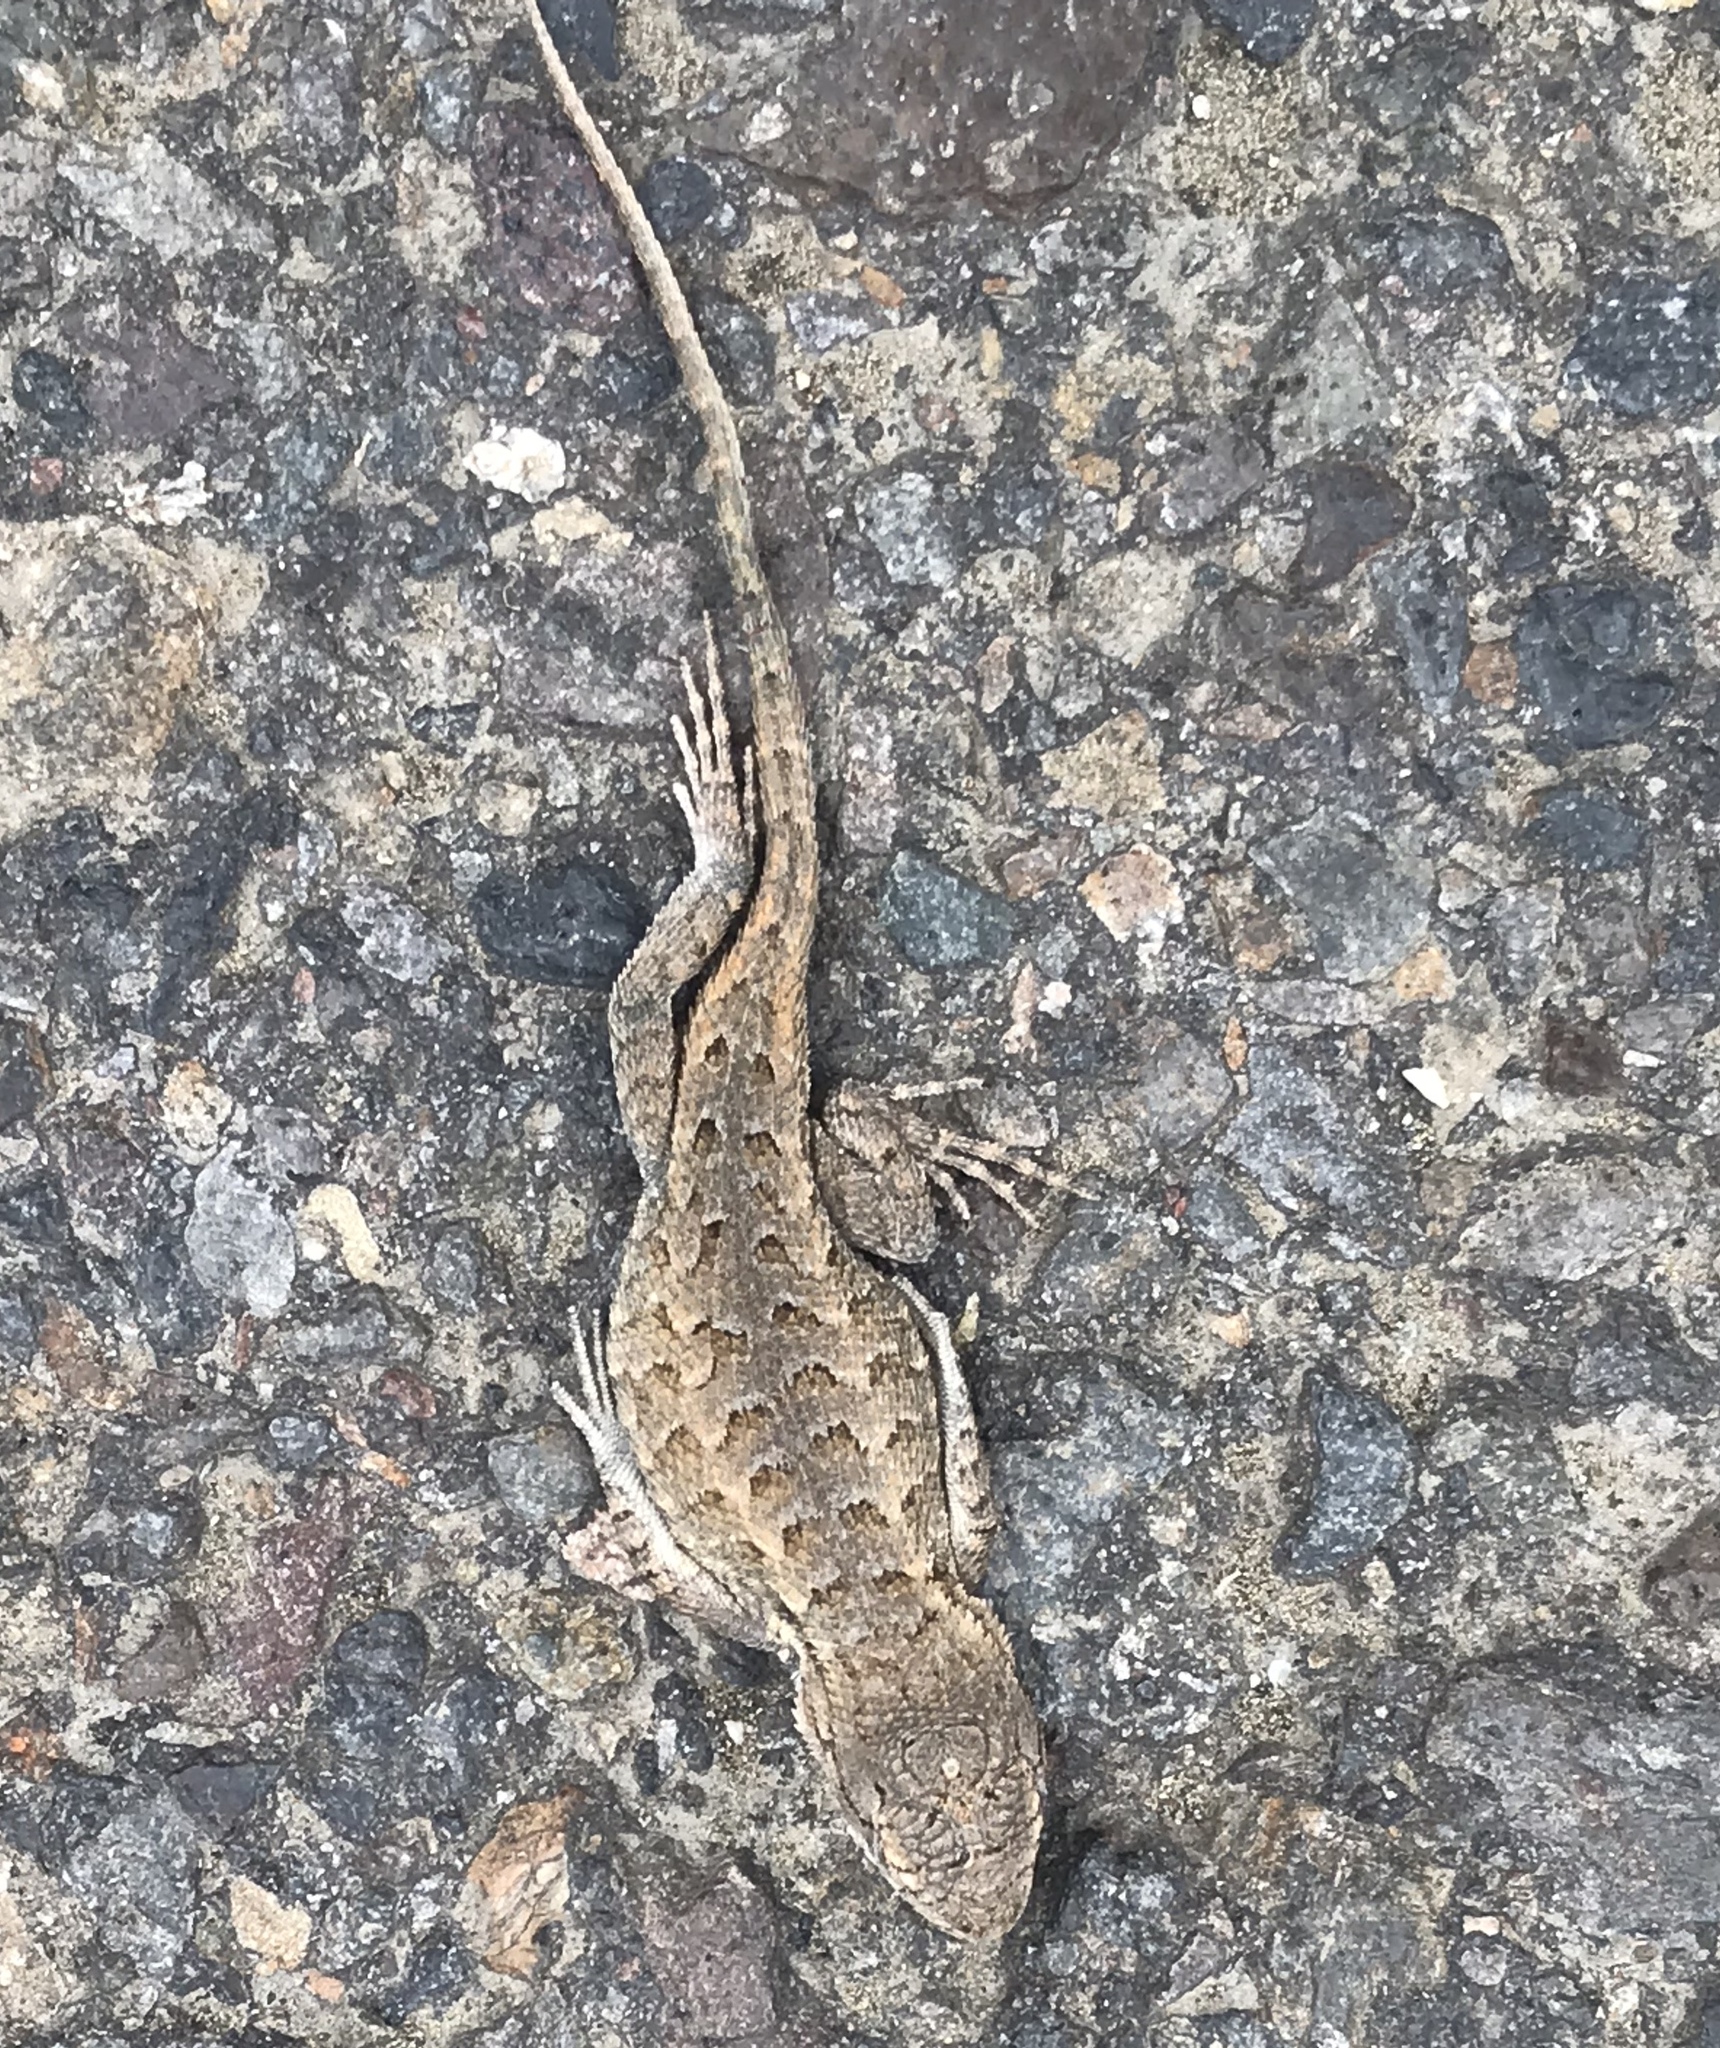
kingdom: Animalia
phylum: Chordata
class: Squamata
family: Phrynosomatidae
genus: Sceloporus
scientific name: Sceloporus occidentalis
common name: Western fence lizard
